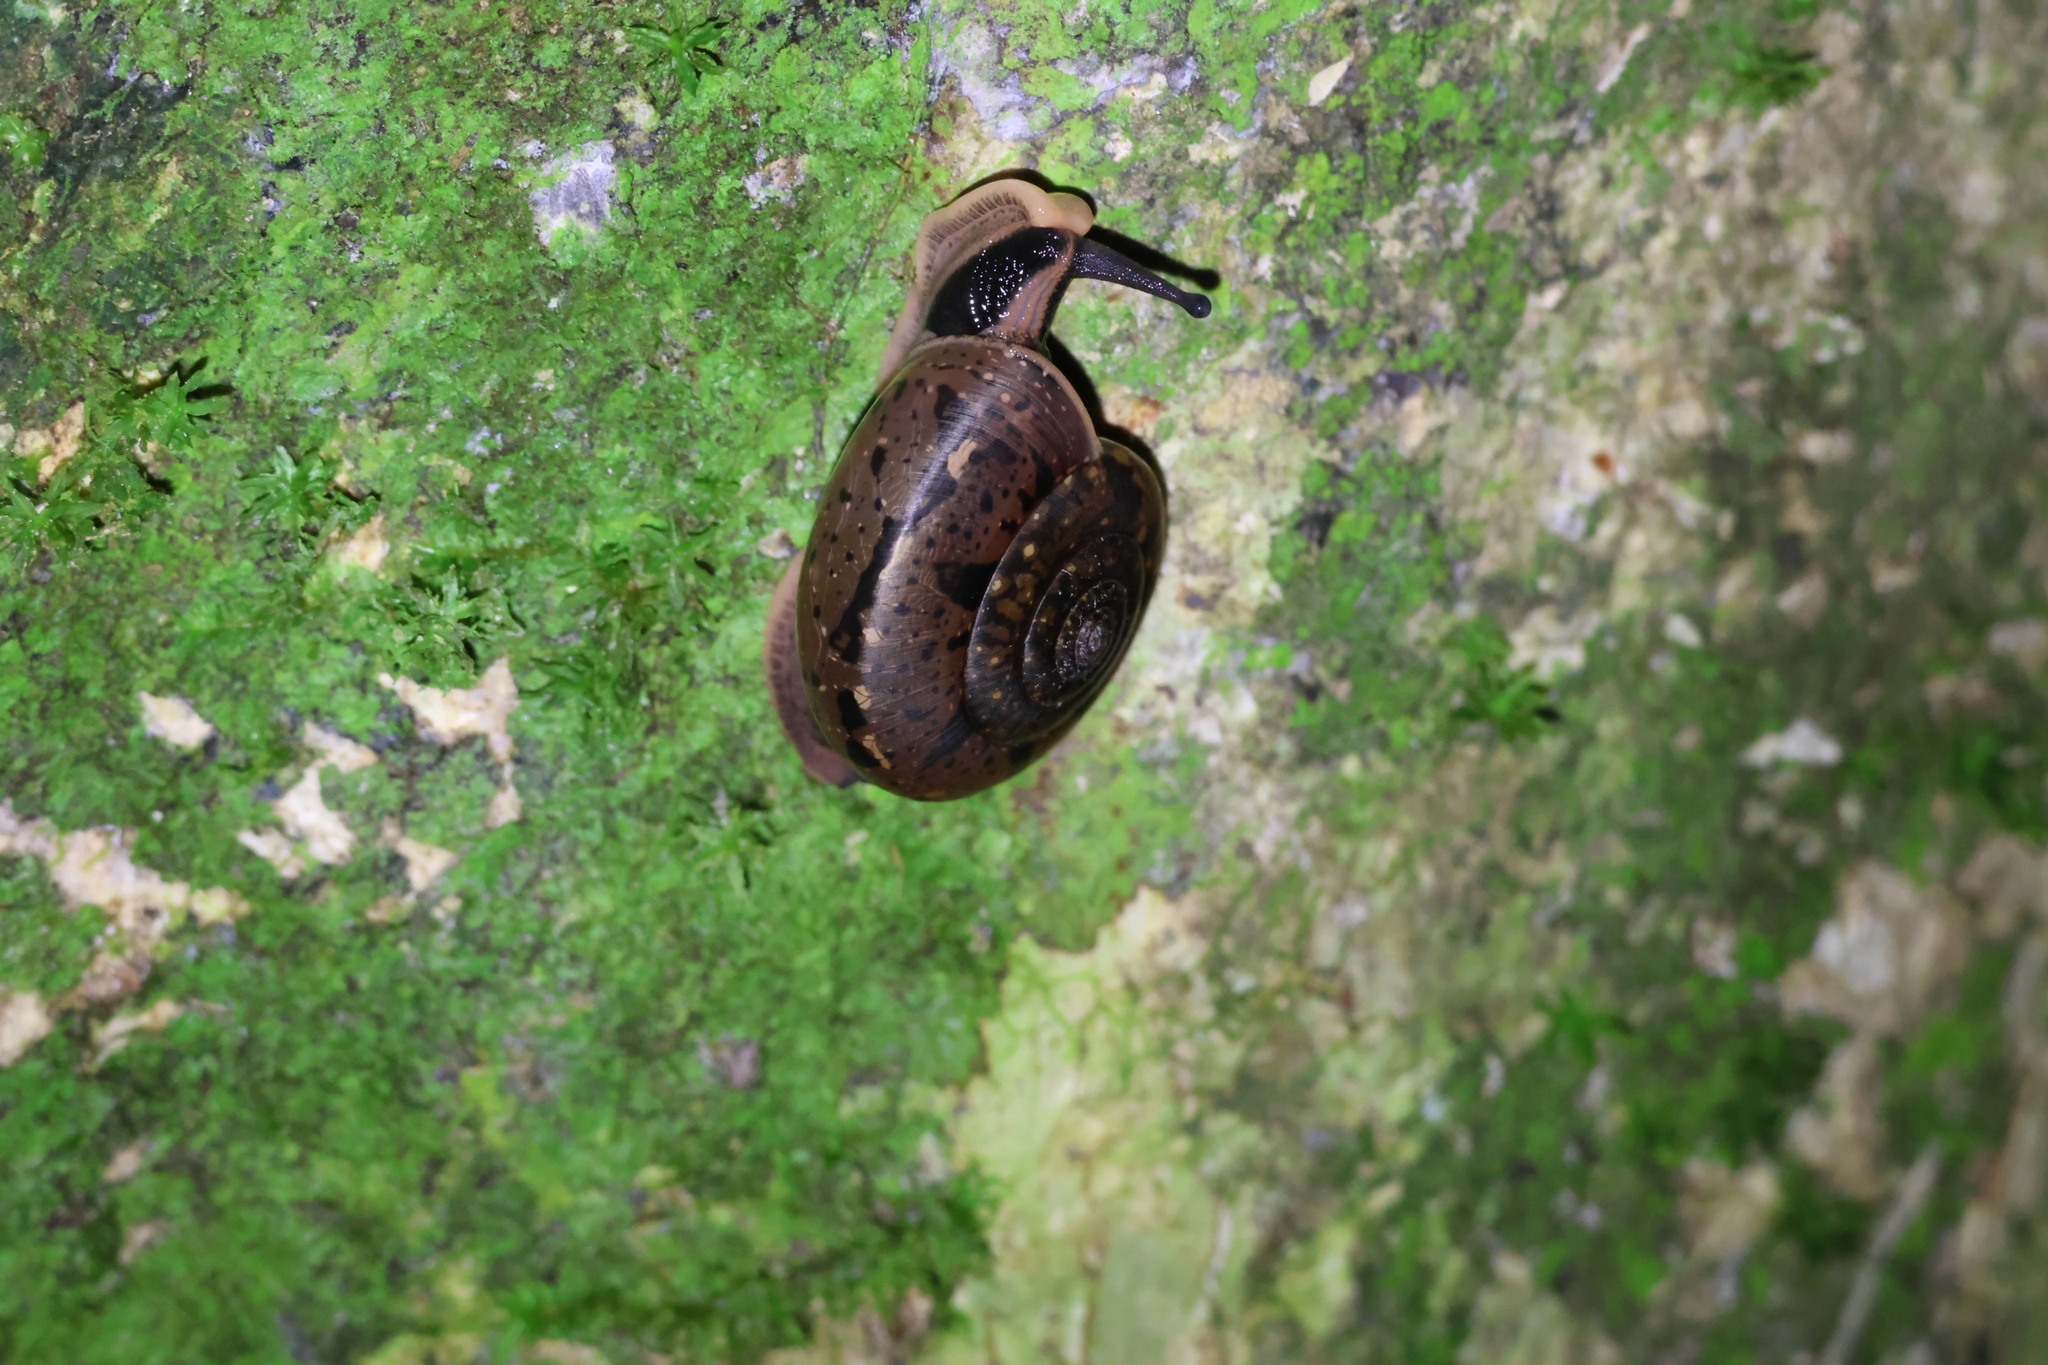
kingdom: Animalia
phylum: Mollusca
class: Gastropoda
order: Stylommatophora
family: Dyakiidae
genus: Everettia
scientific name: Everettia subconsul
